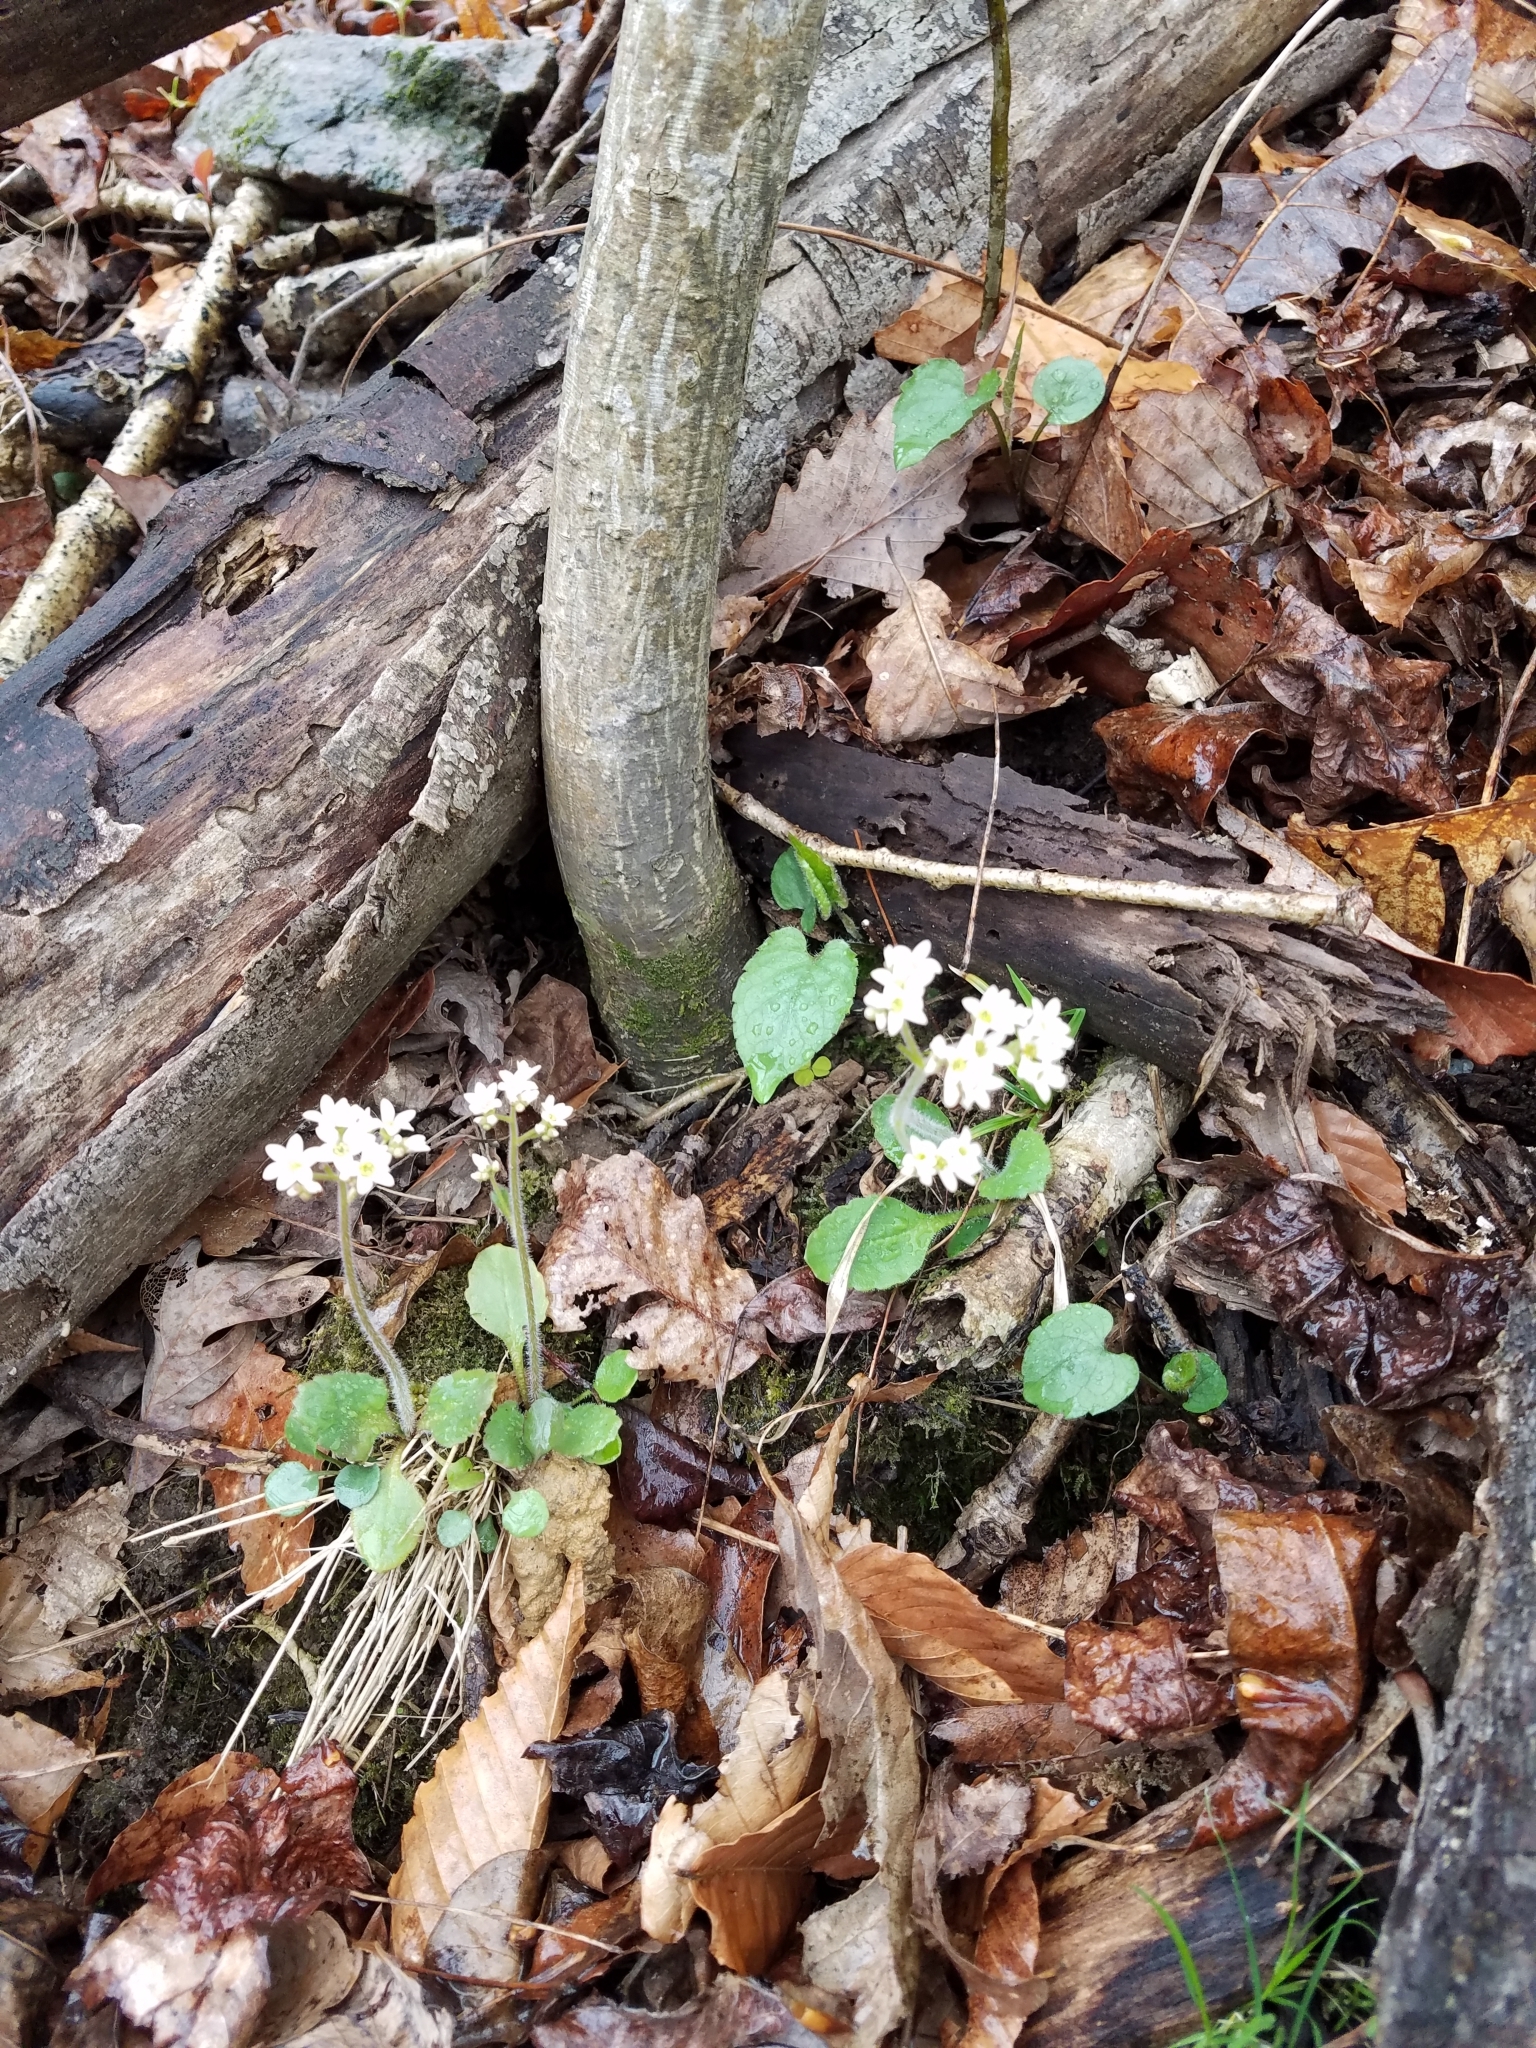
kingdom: Plantae
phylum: Tracheophyta
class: Magnoliopsida
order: Saxifragales
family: Saxifragaceae
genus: Micranthes
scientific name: Micranthes virginiensis
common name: Early saxifrage
